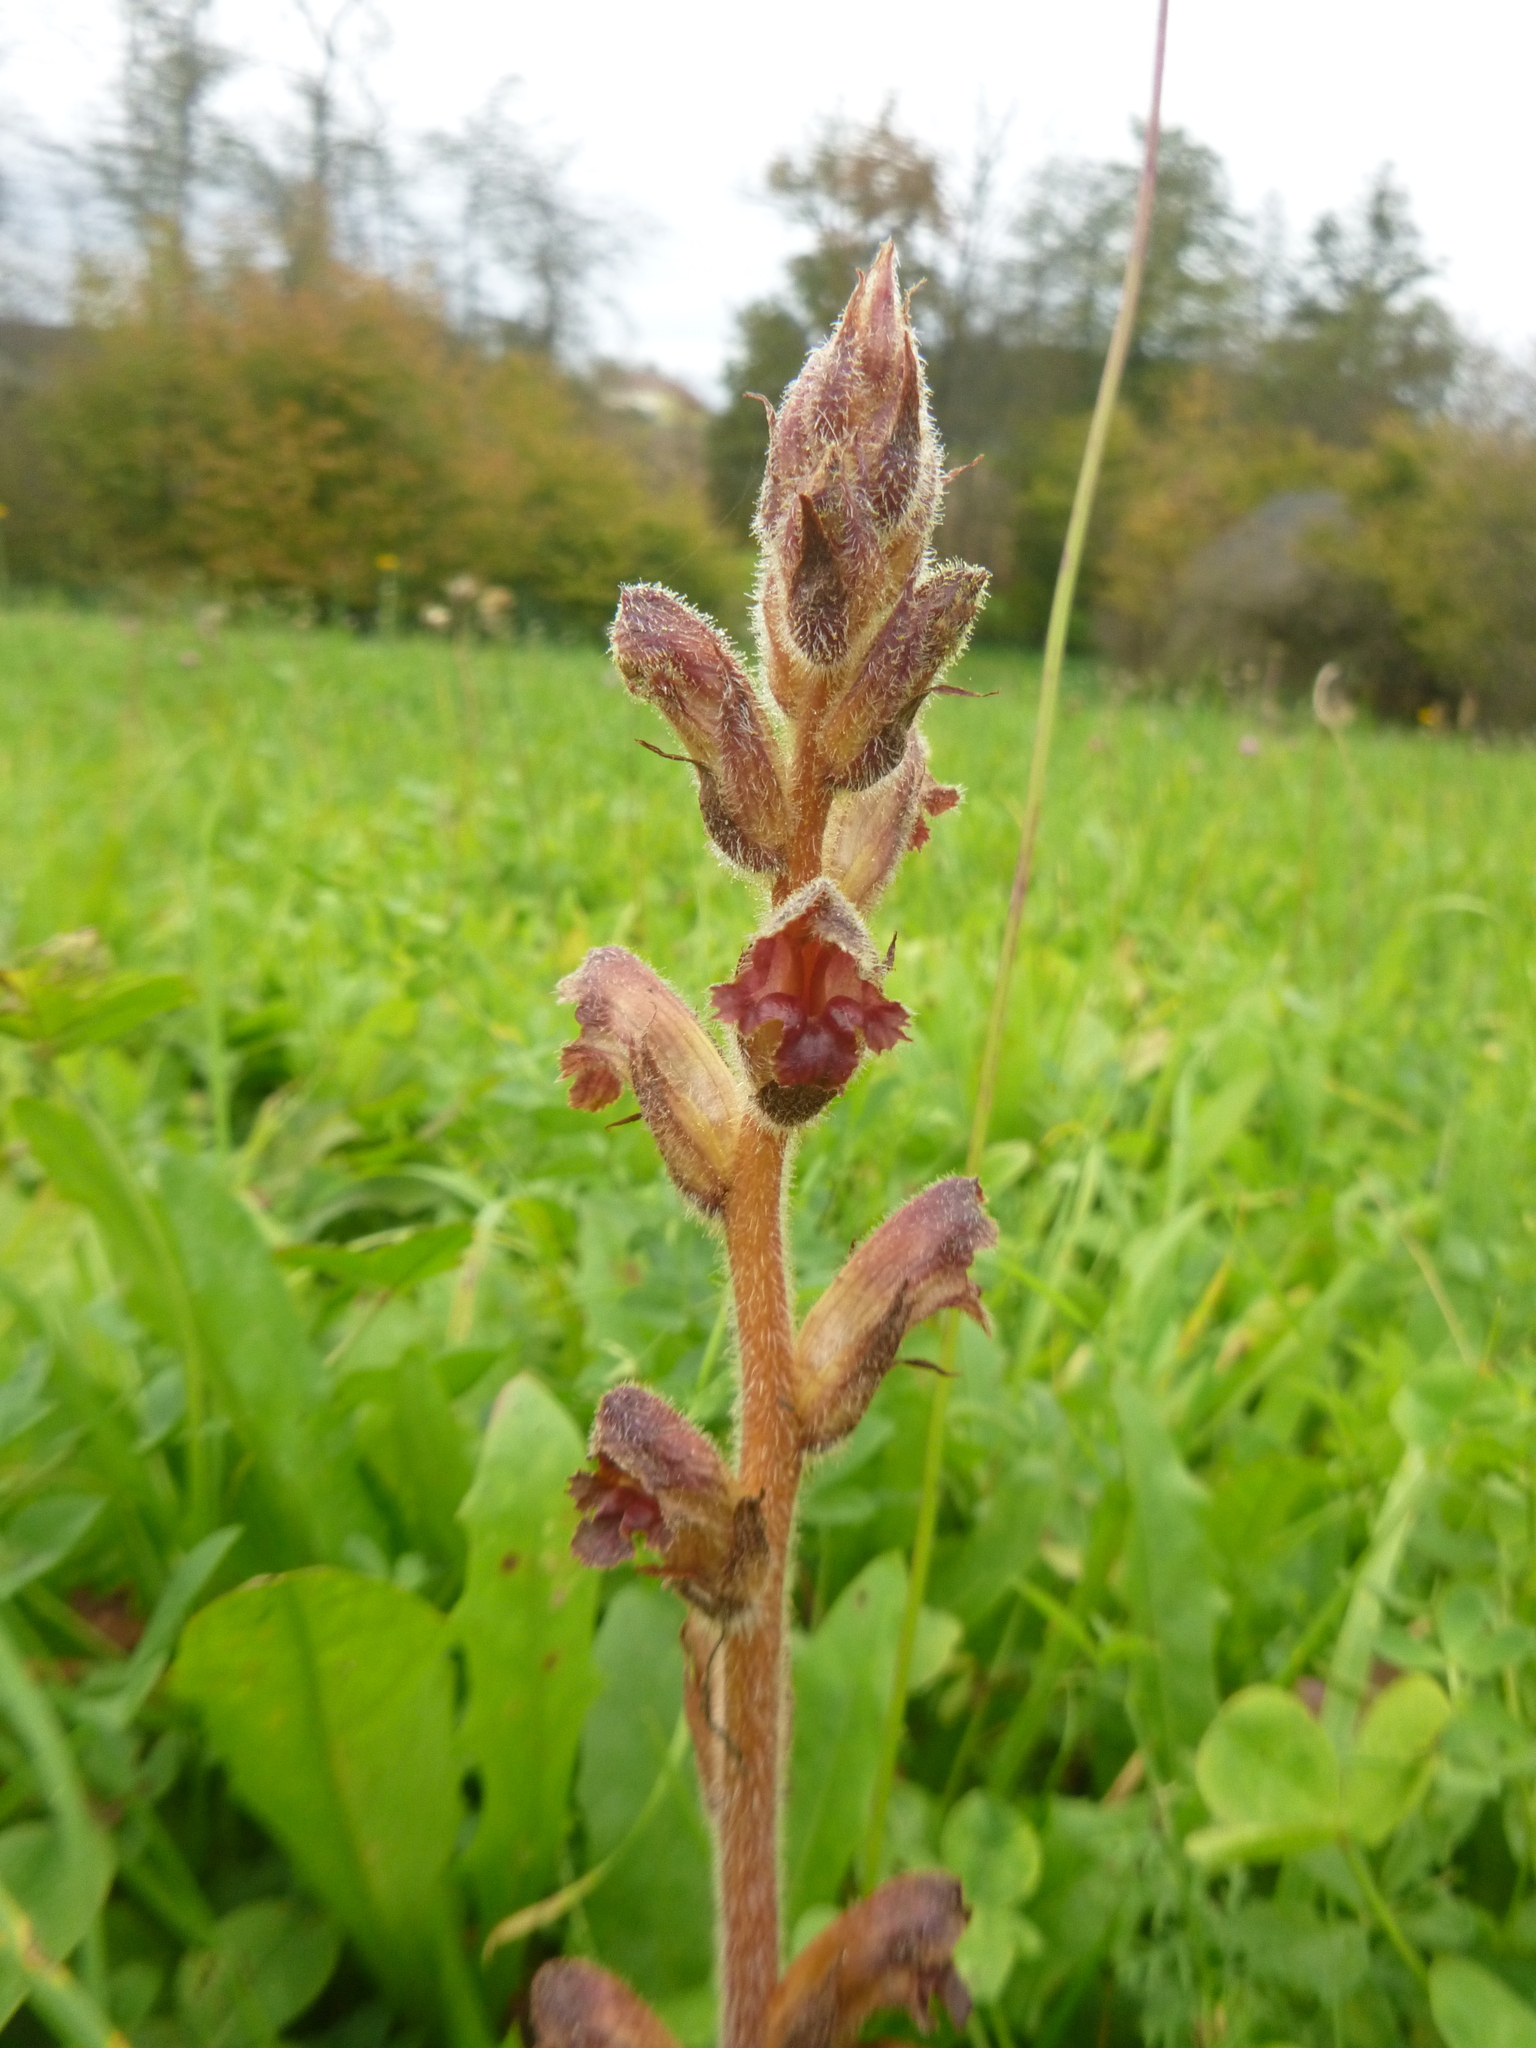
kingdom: Plantae
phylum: Tracheophyta
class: Magnoliopsida
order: Lamiales
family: Orobanchaceae
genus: Orobanche
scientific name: Orobanche gracilis
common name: Slender broomrape
